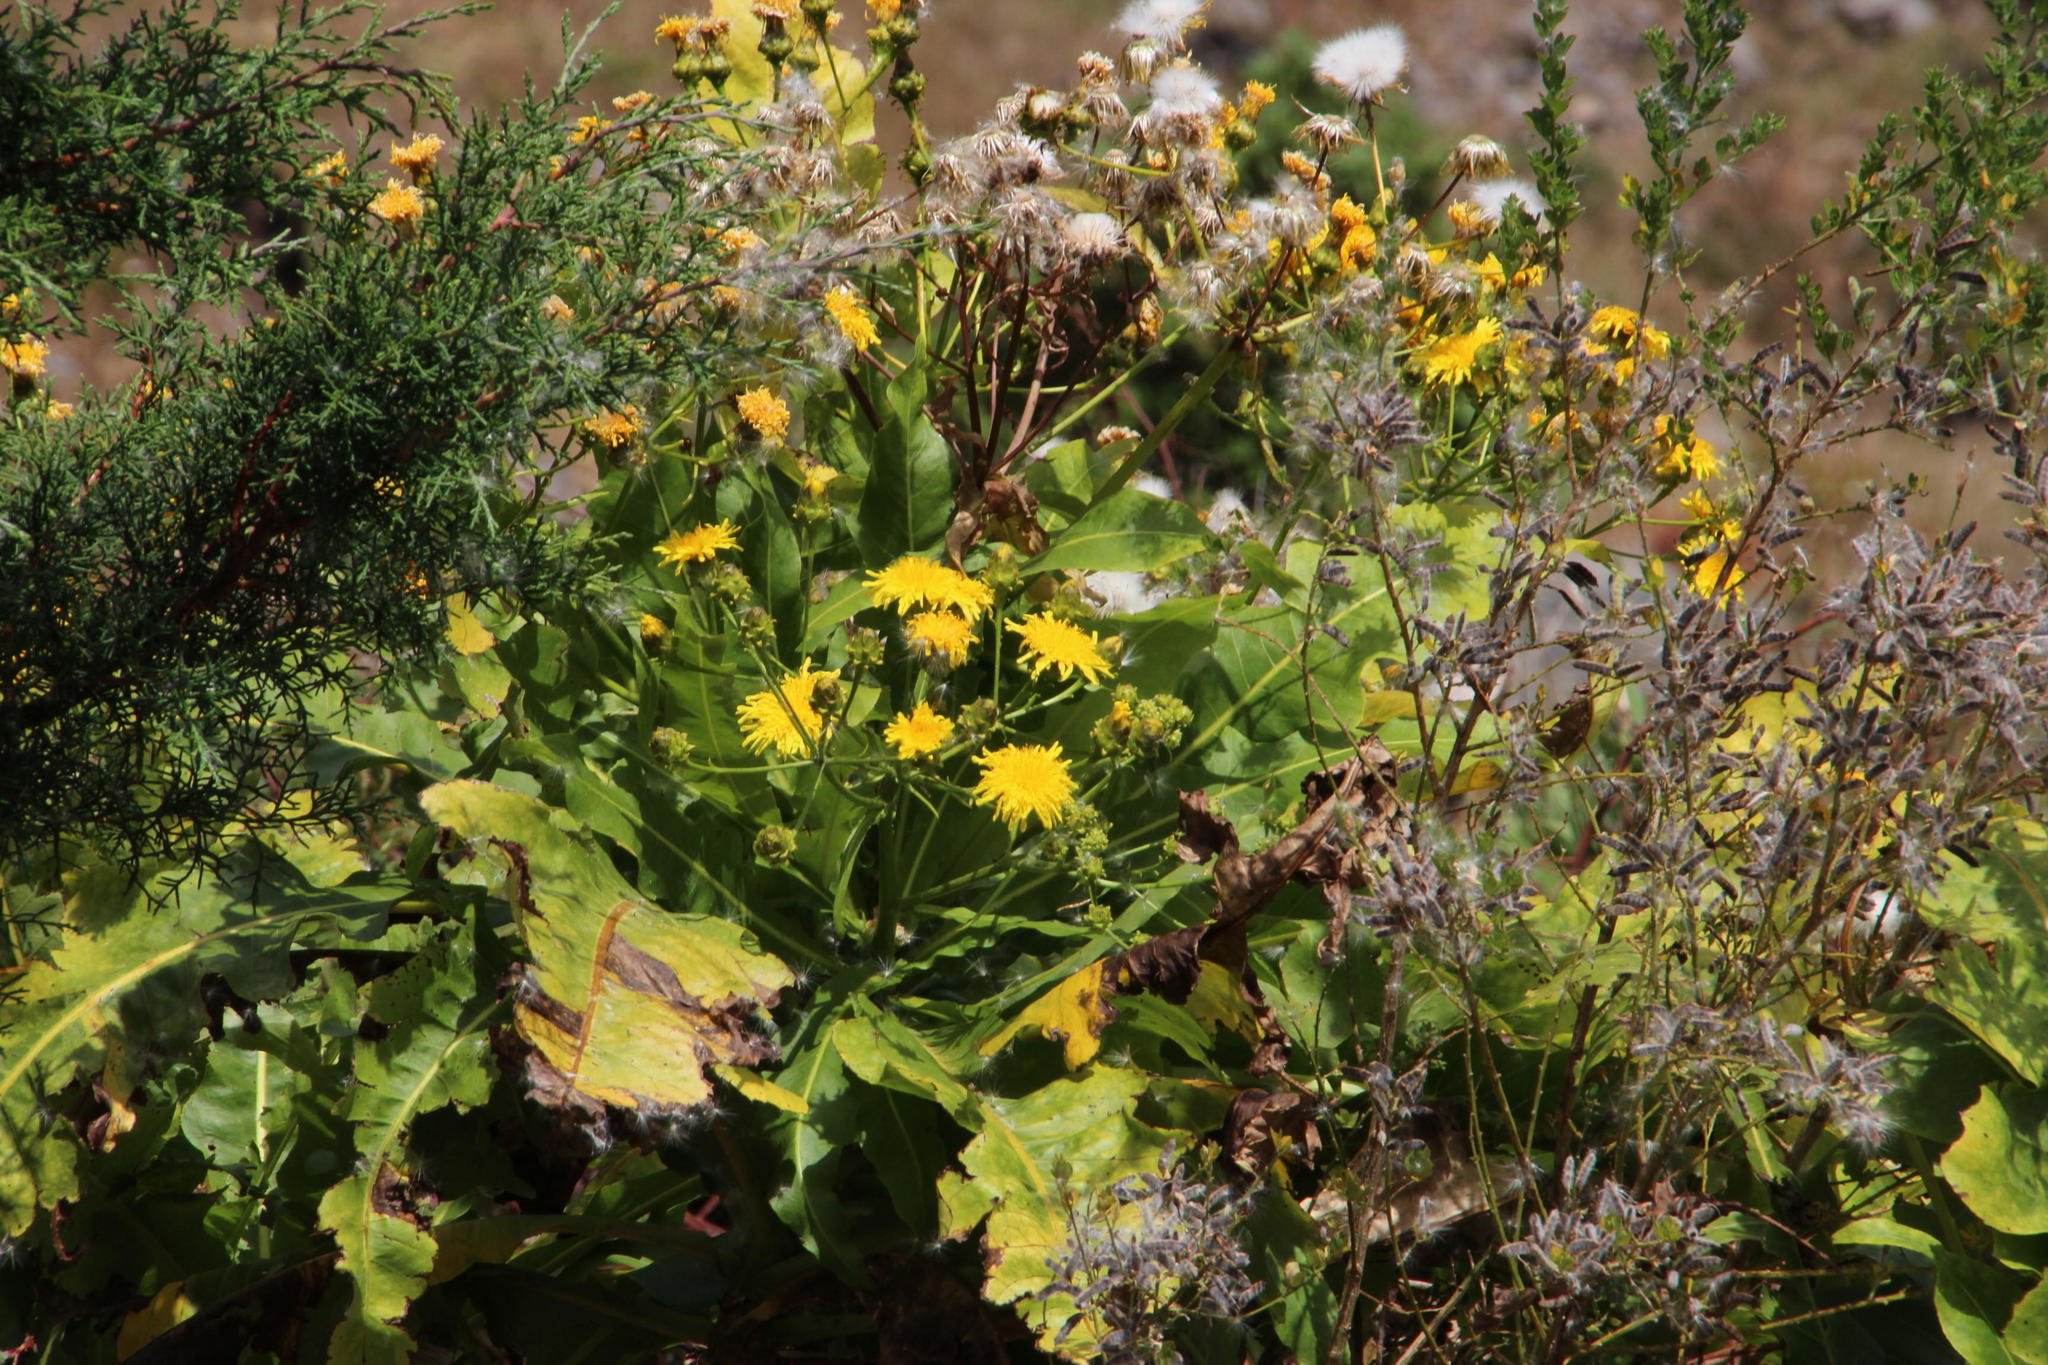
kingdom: Plantae
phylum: Tracheophyta
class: Magnoliopsida
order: Asterales
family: Asteraceae
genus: Sonchus
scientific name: Sonchus fruticosus
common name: Shrubby sow-thistle
